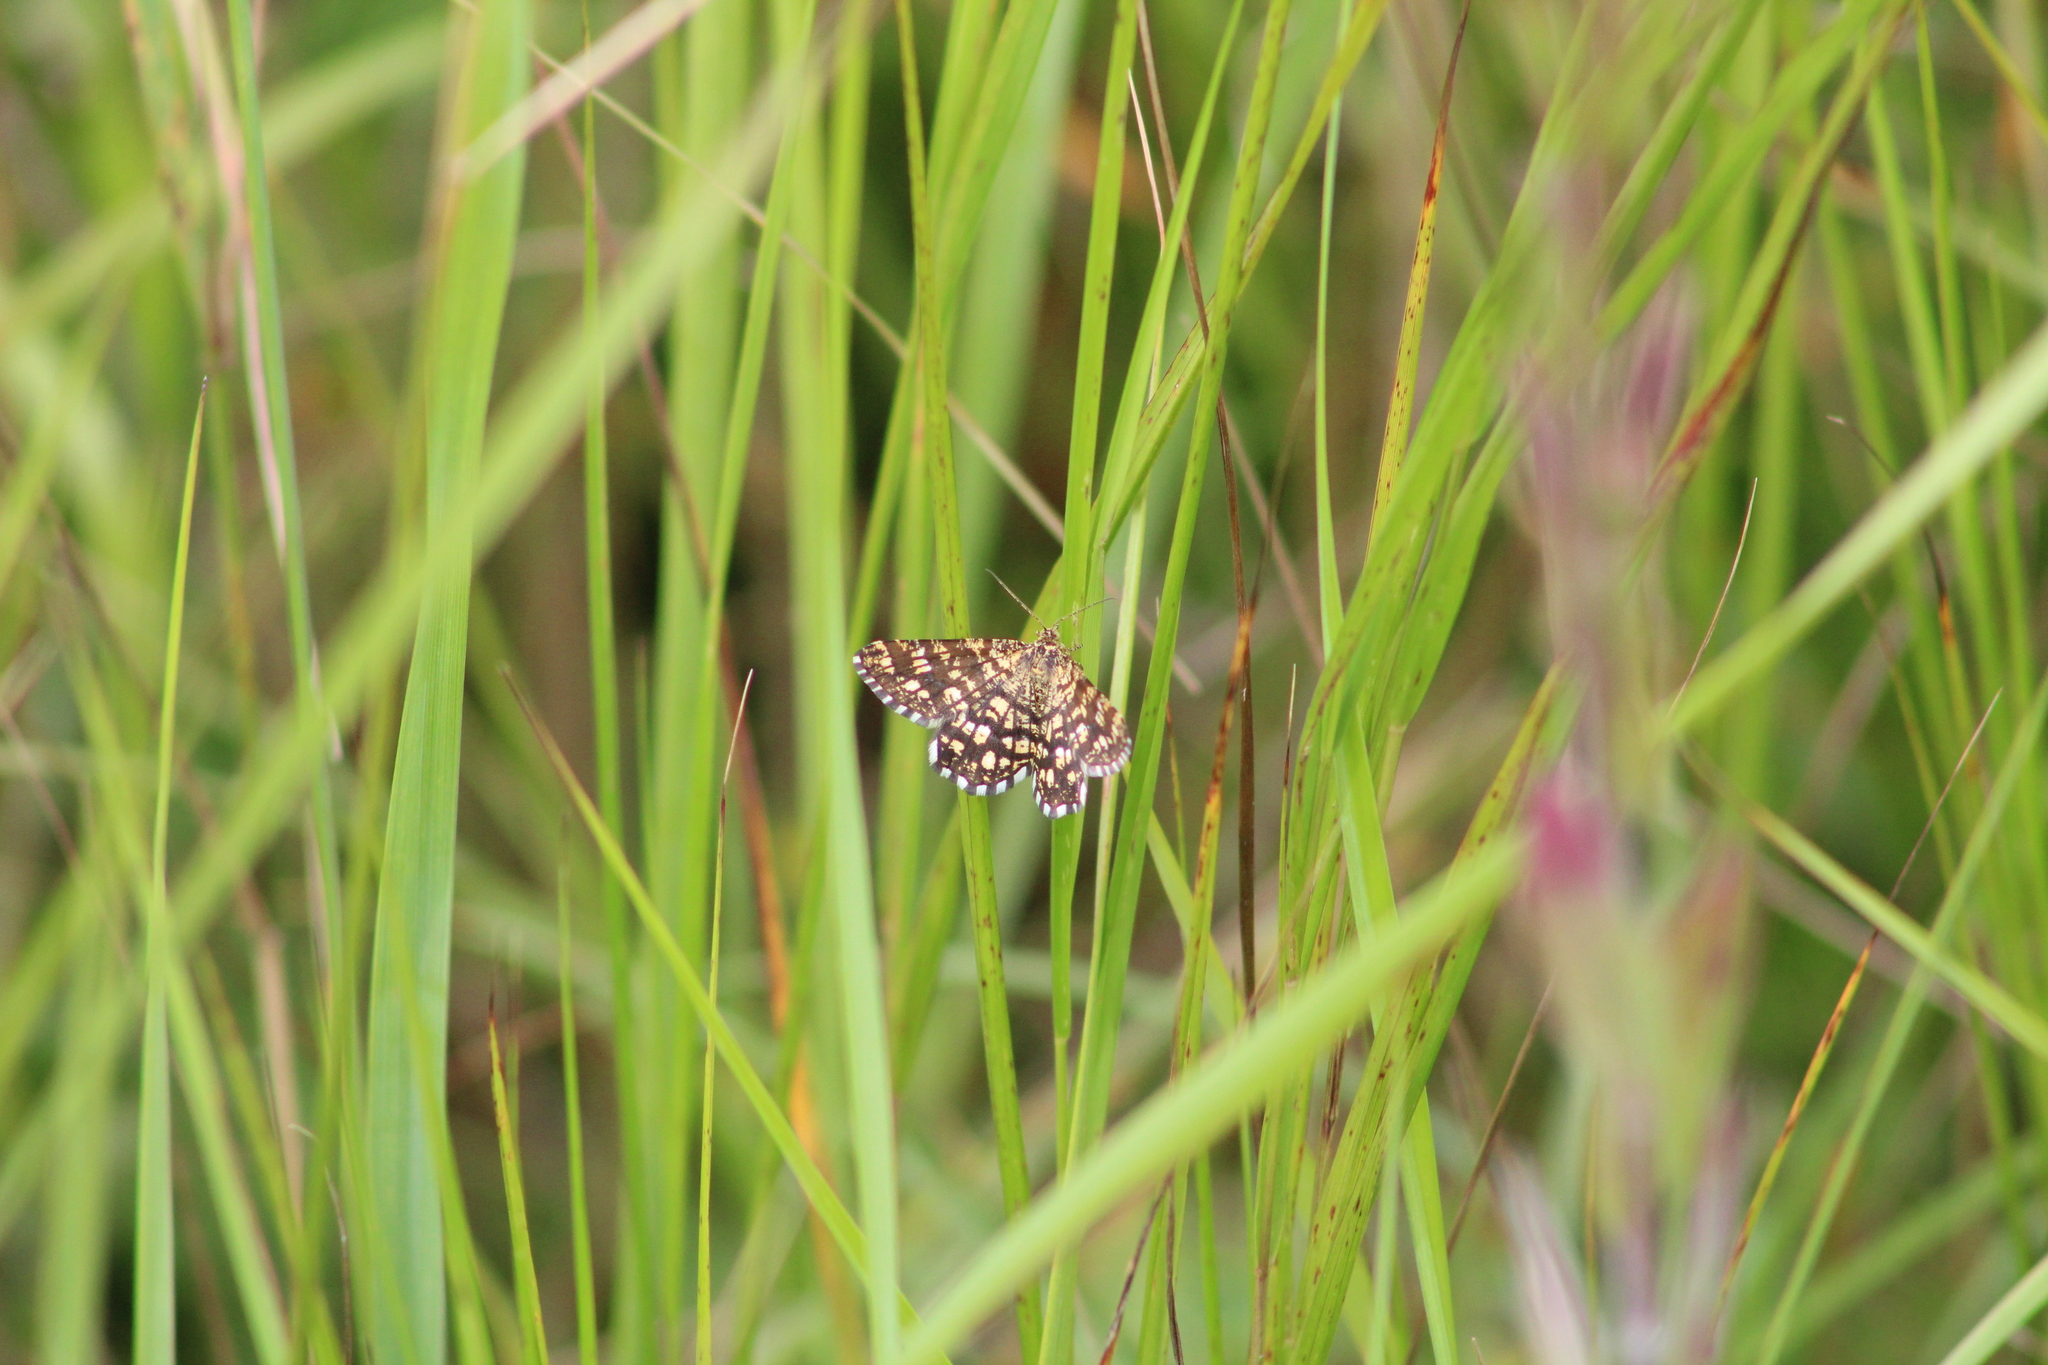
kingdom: Animalia
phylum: Arthropoda
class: Insecta
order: Lepidoptera
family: Geometridae
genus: Chiasmia
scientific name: Chiasmia clathrata
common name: Latticed heath
